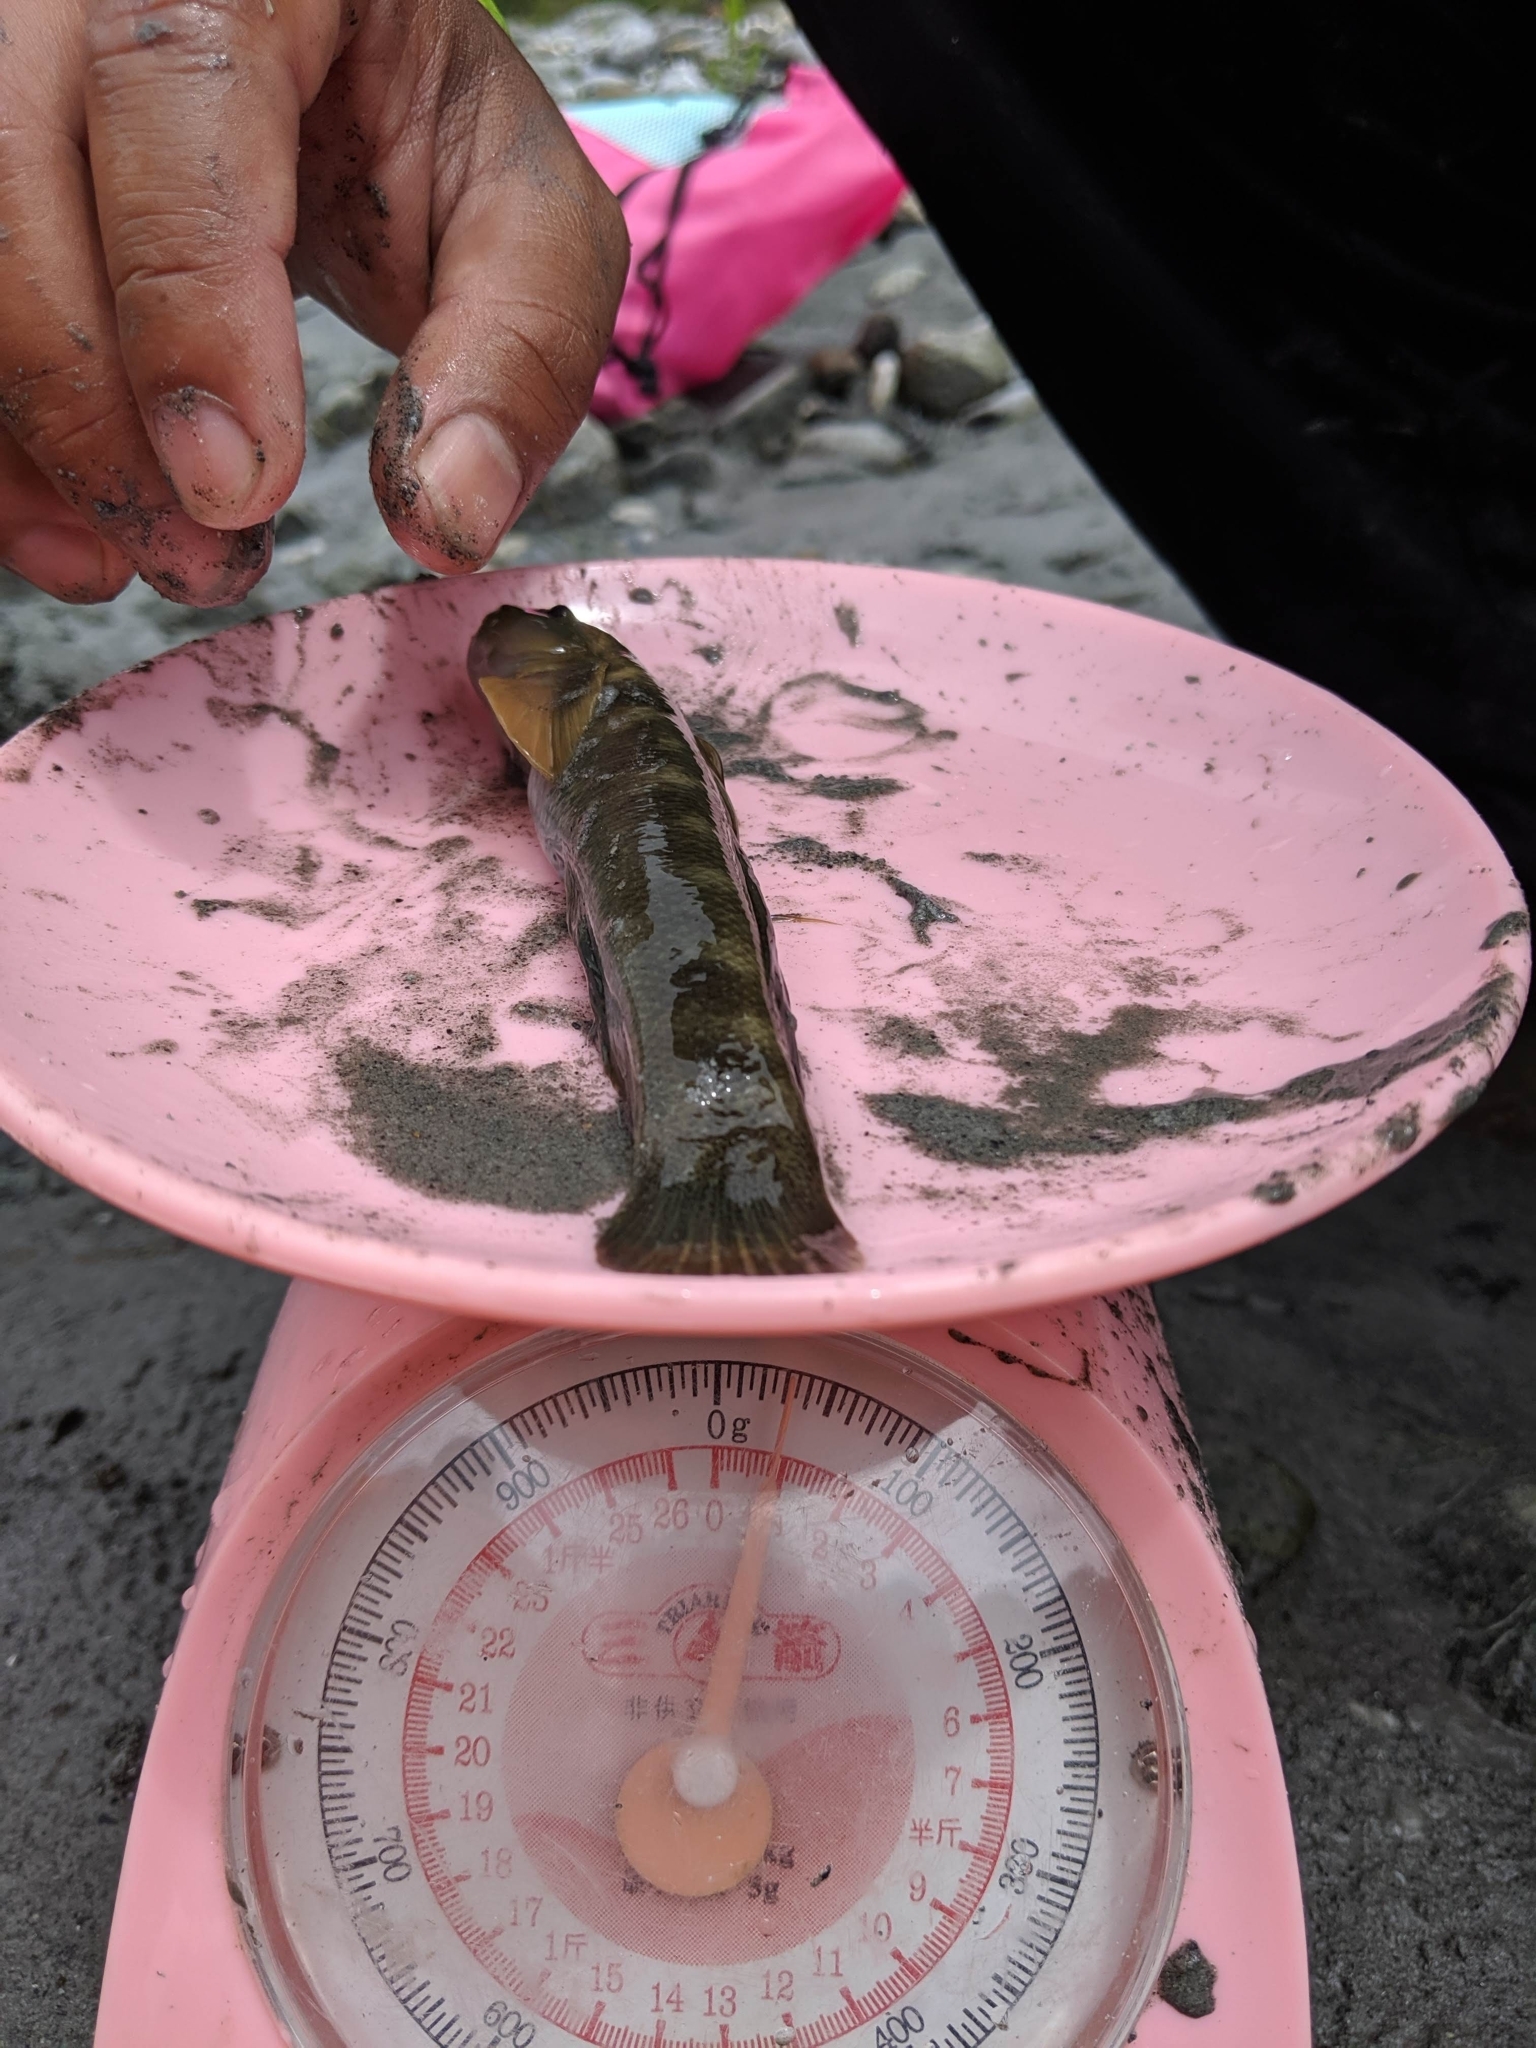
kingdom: Animalia
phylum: Chordata
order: Perciformes
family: Gobiidae
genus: Sicyopterus
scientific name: Sicyopterus japonicus
